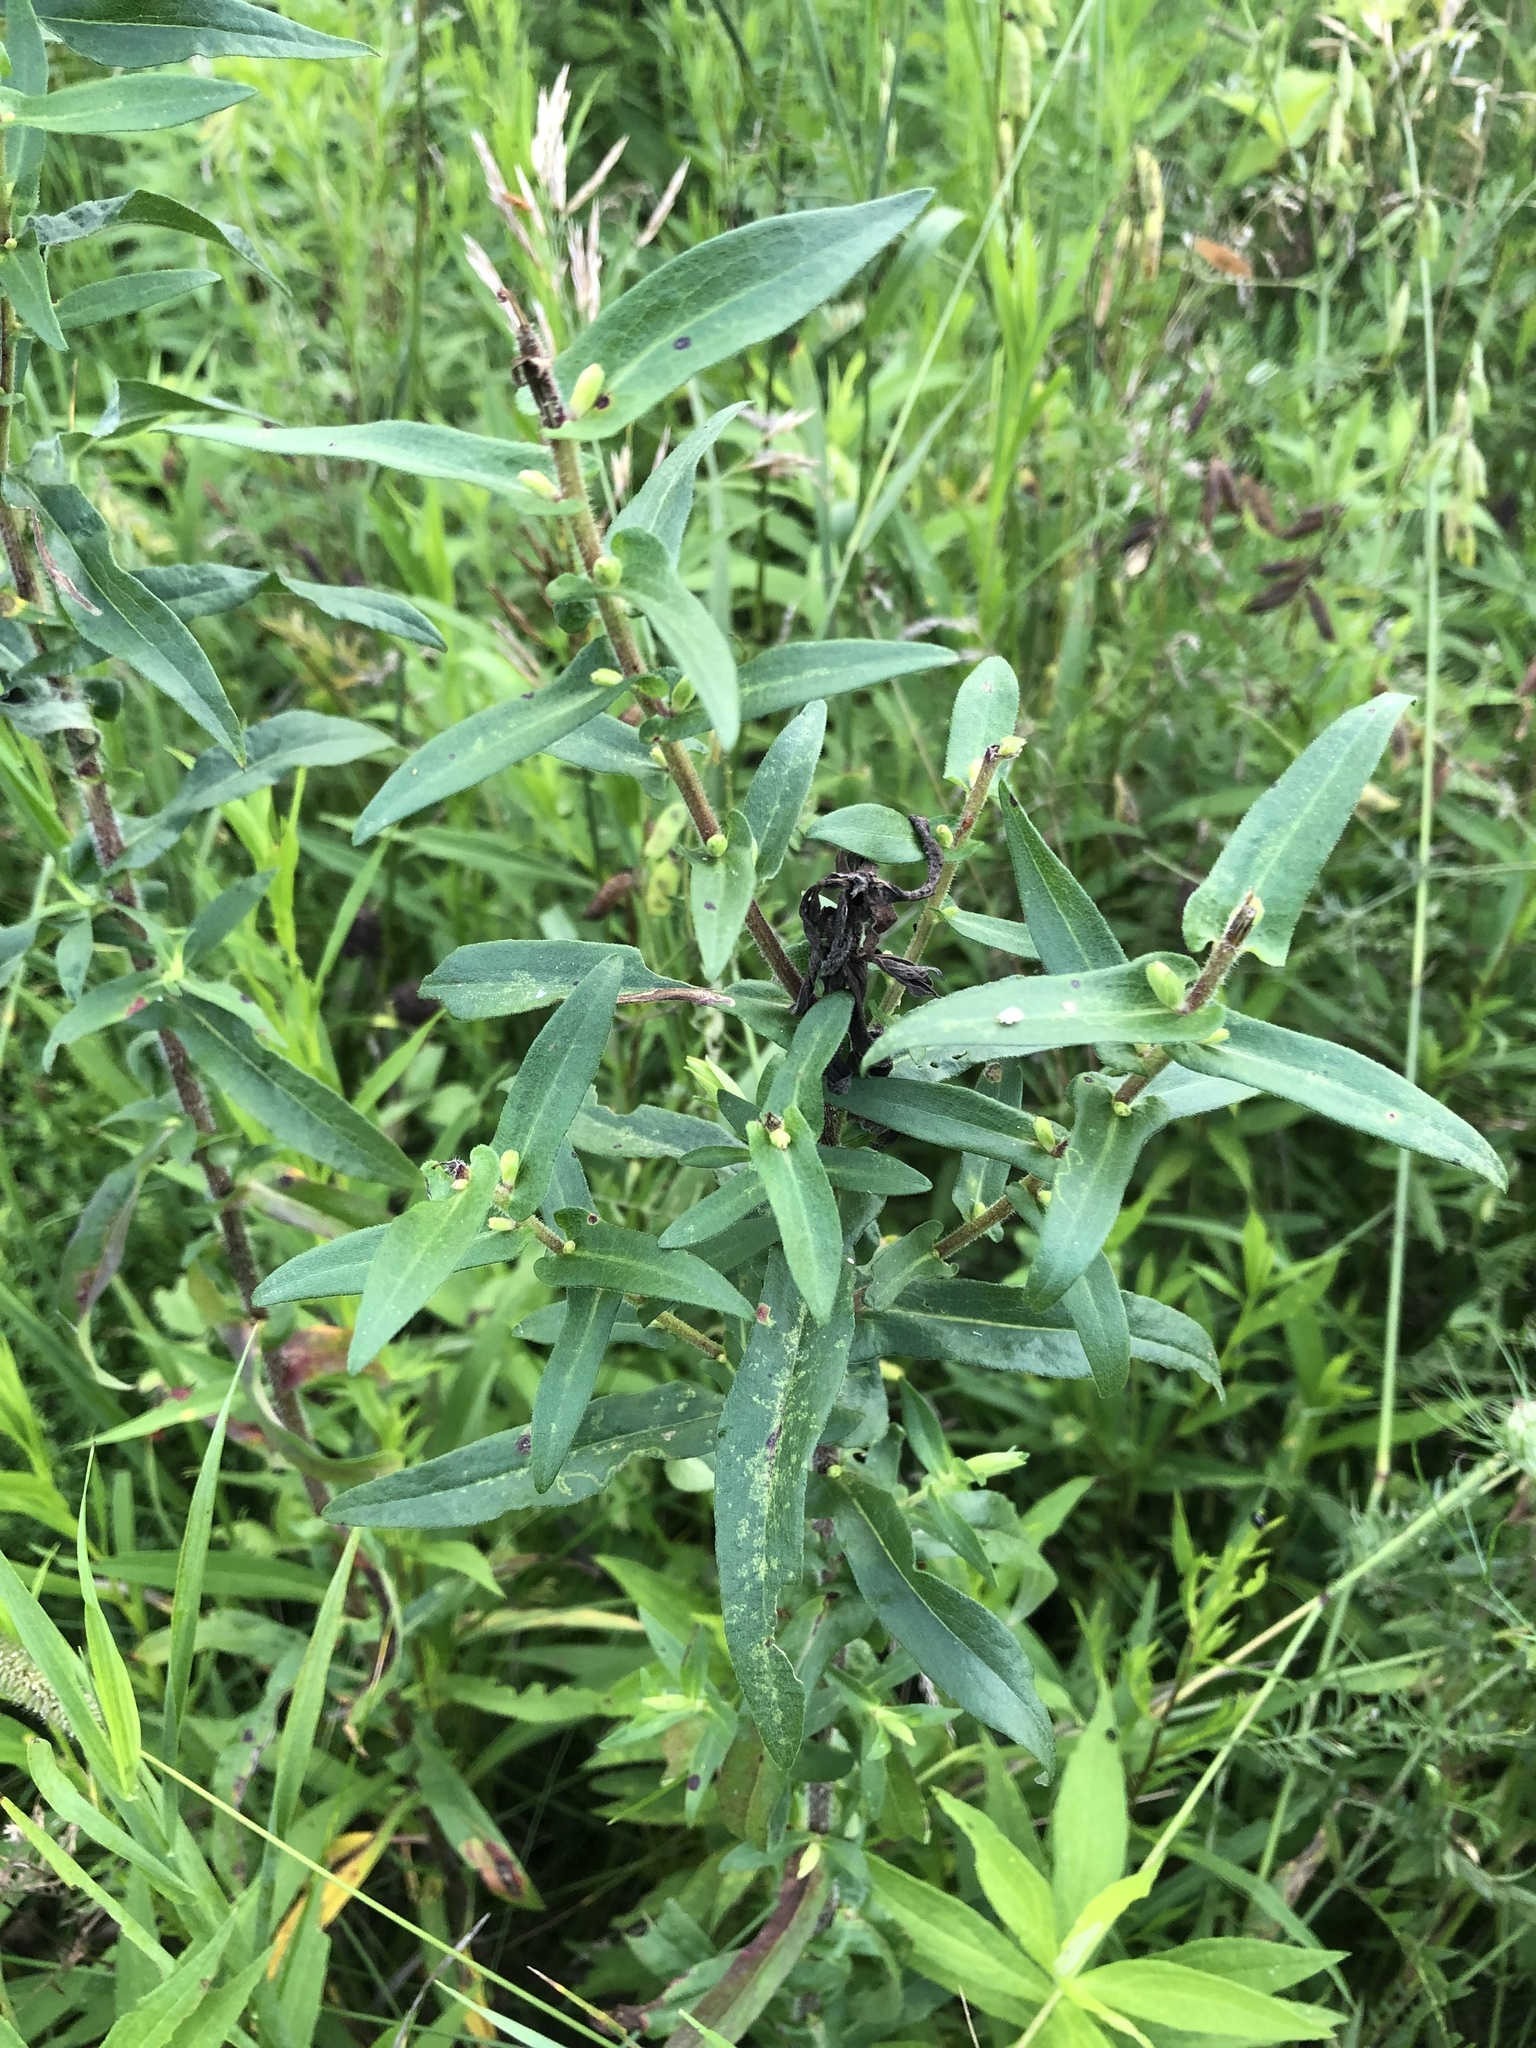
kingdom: Plantae
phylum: Tracheophyta
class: Magnoliopsida
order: Asterales
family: Asteraceae
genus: Symphyotrichum
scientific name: Symphyotrichum novae-angliae
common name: Michaelmas daisy
